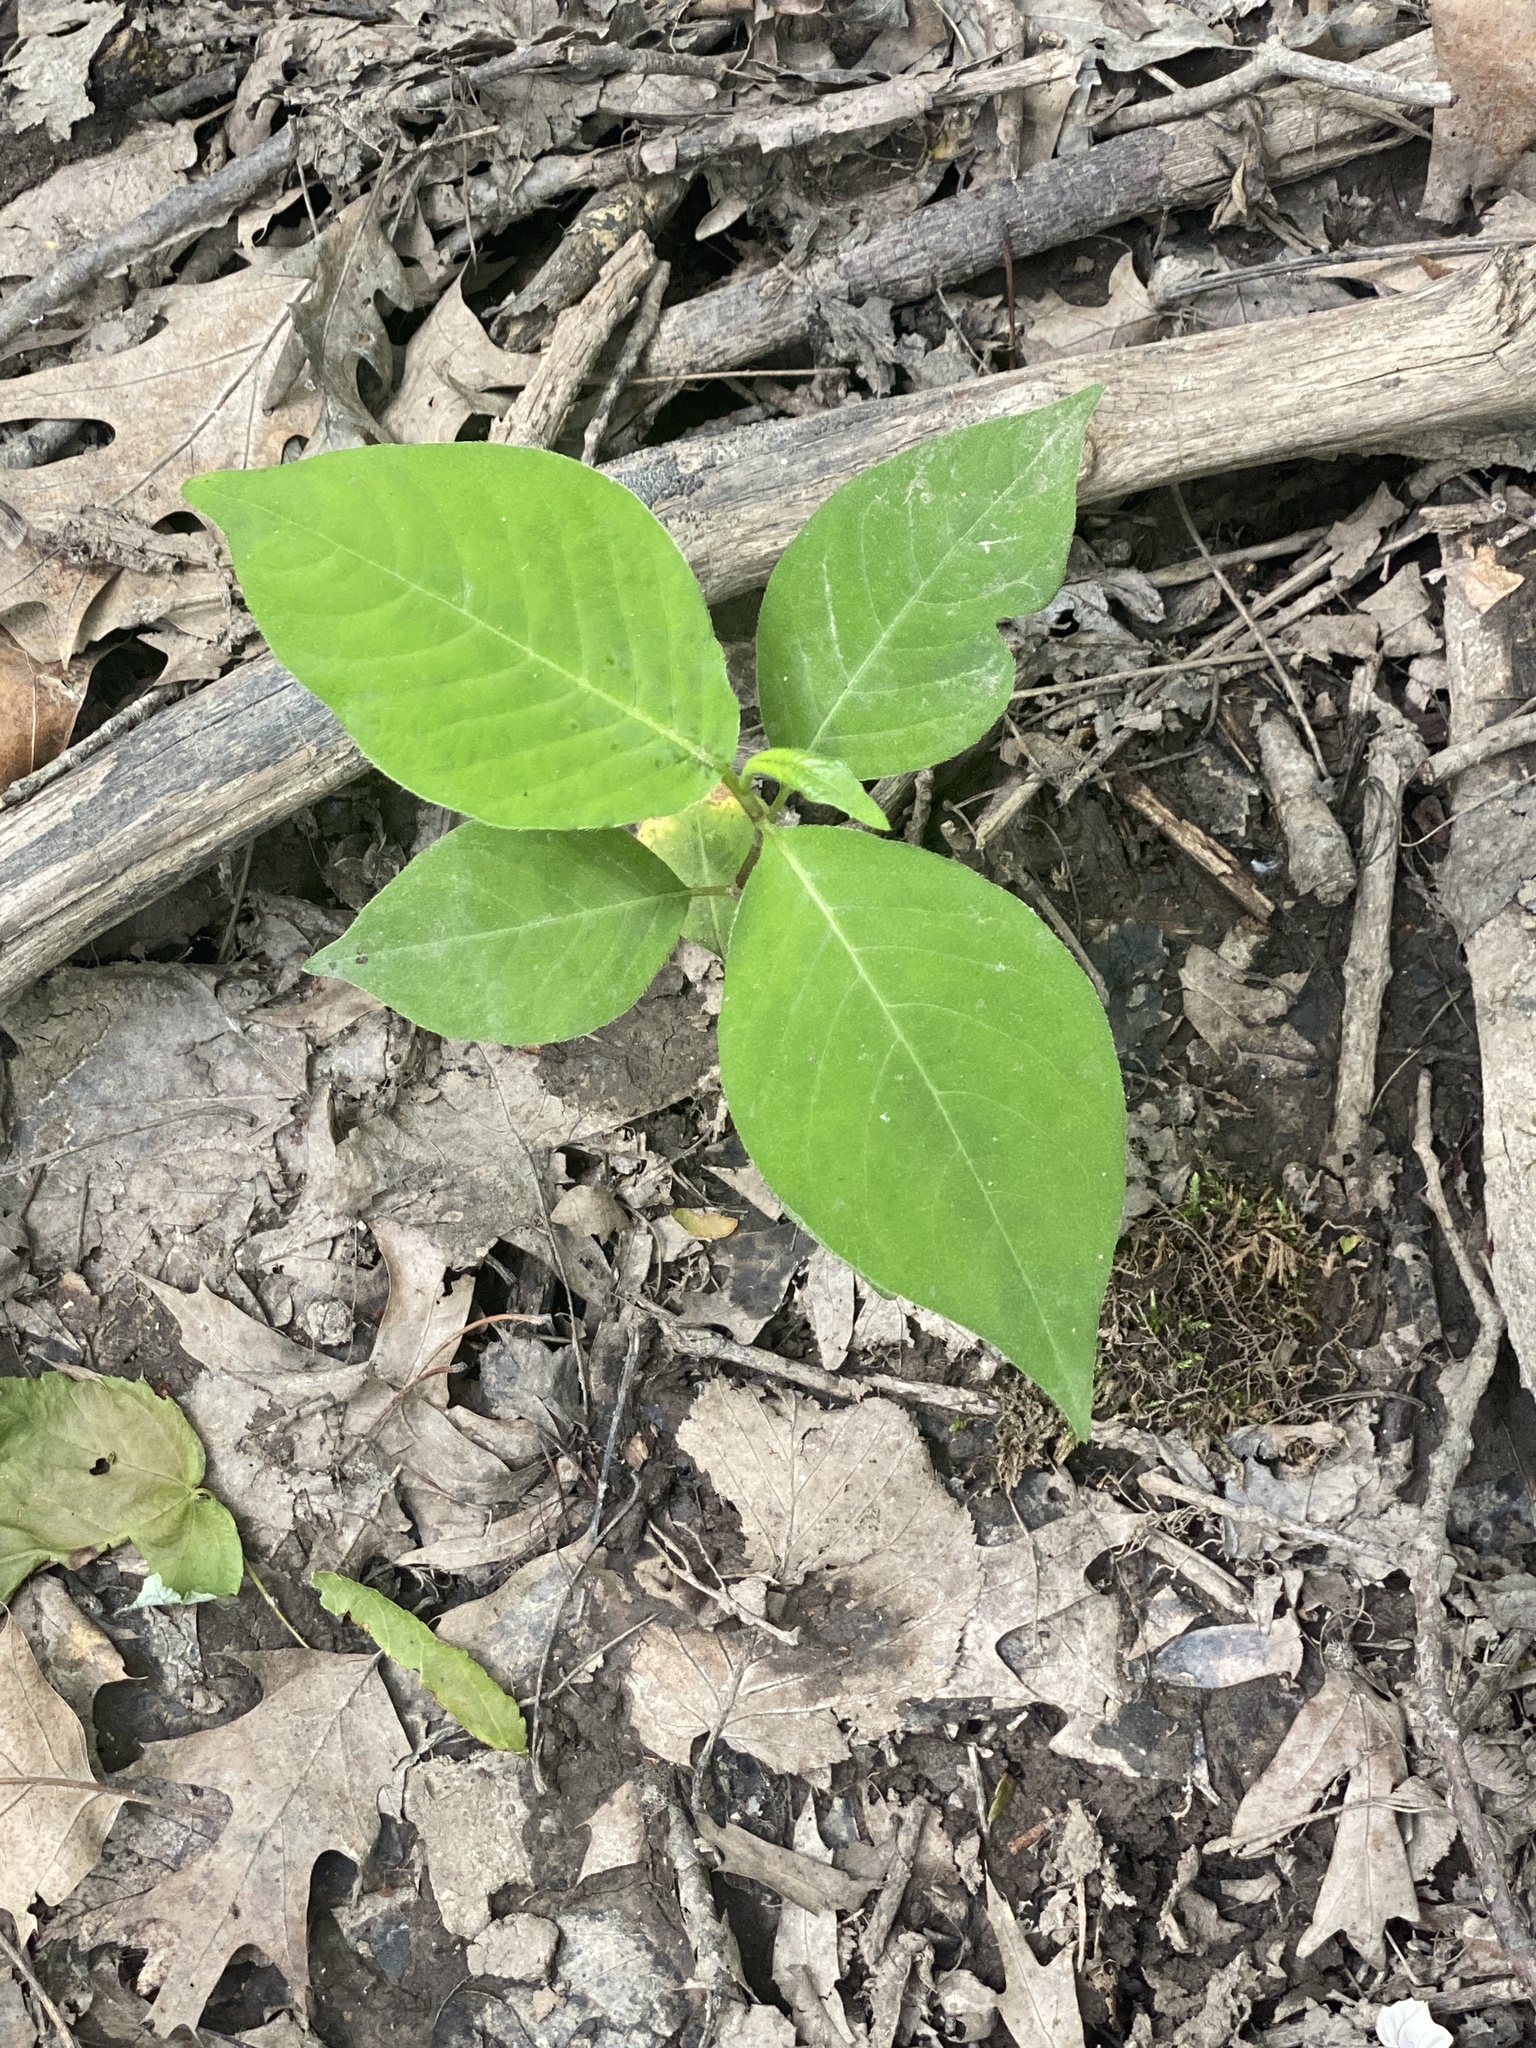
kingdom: Plantae
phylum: Tracheophyta
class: Magnoliopsida
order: Caryophyllales
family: Polygonaceae
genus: Persicaria
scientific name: Persicaria virginiana
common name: Jumpseed
